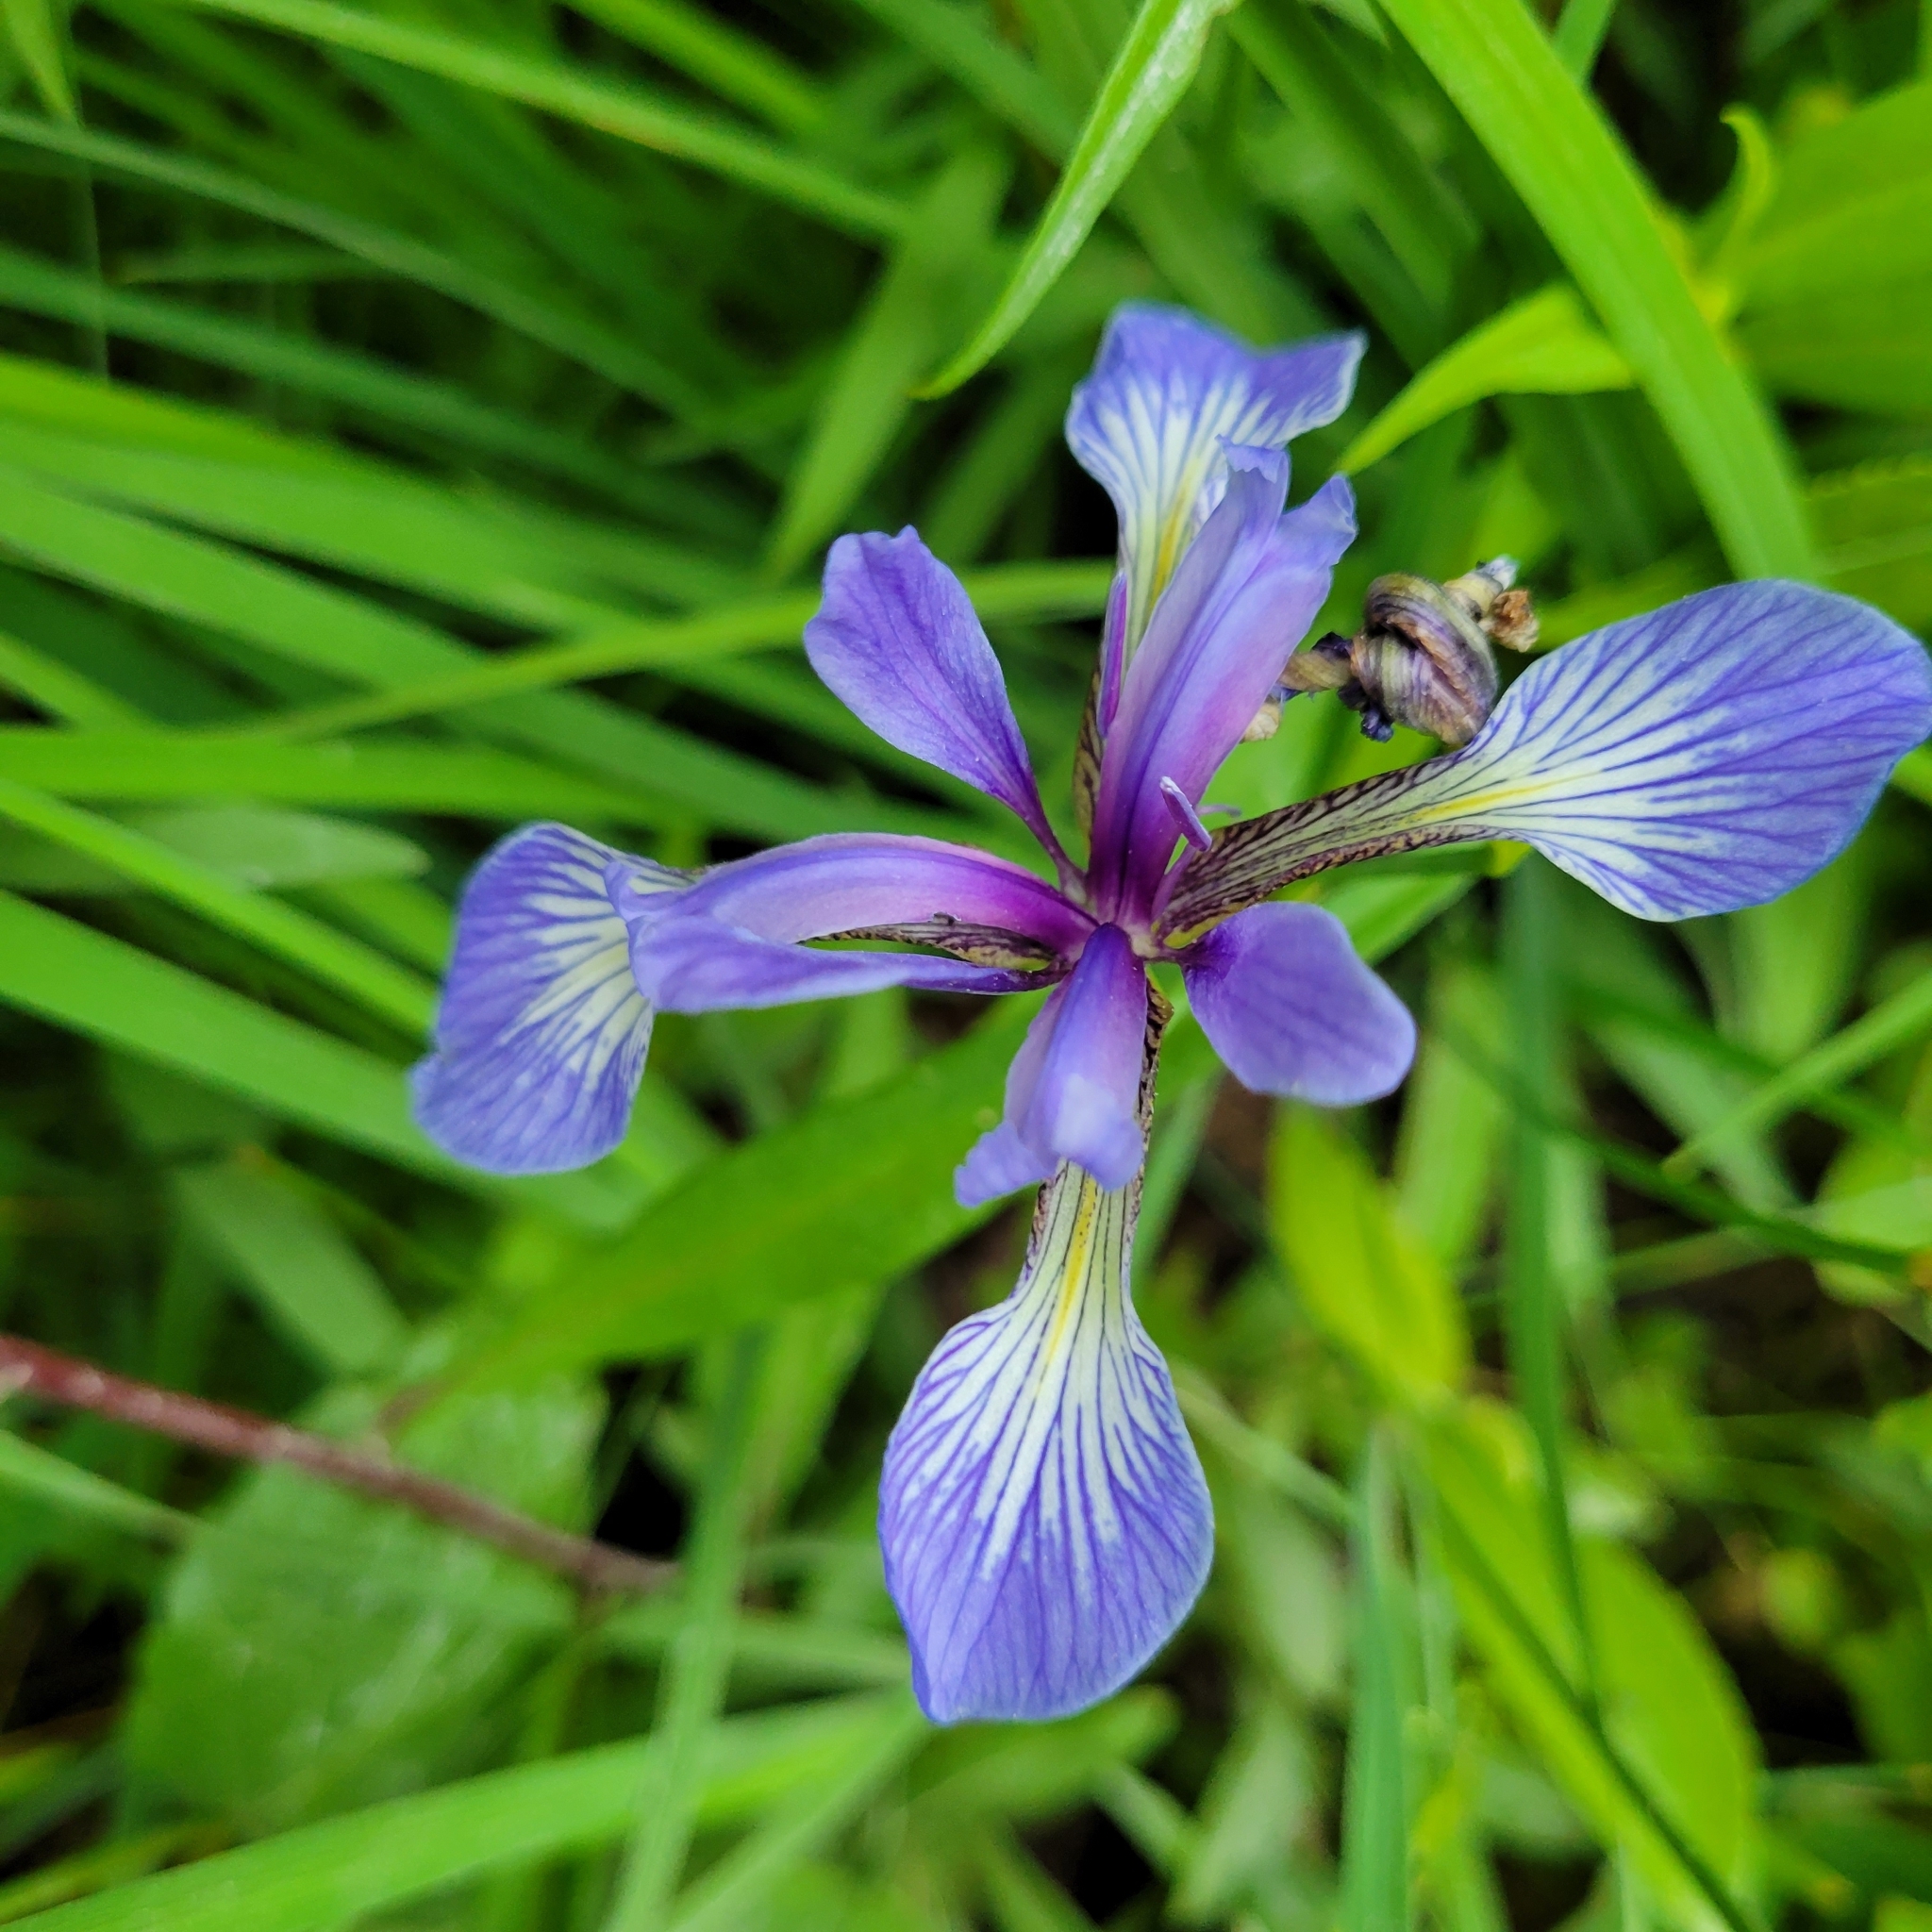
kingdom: Plantae
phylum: Tracheophyta
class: Liliopsida
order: Asparagales
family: Iridaceae
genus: Iris
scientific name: Iris versicolor
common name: Purple iris
